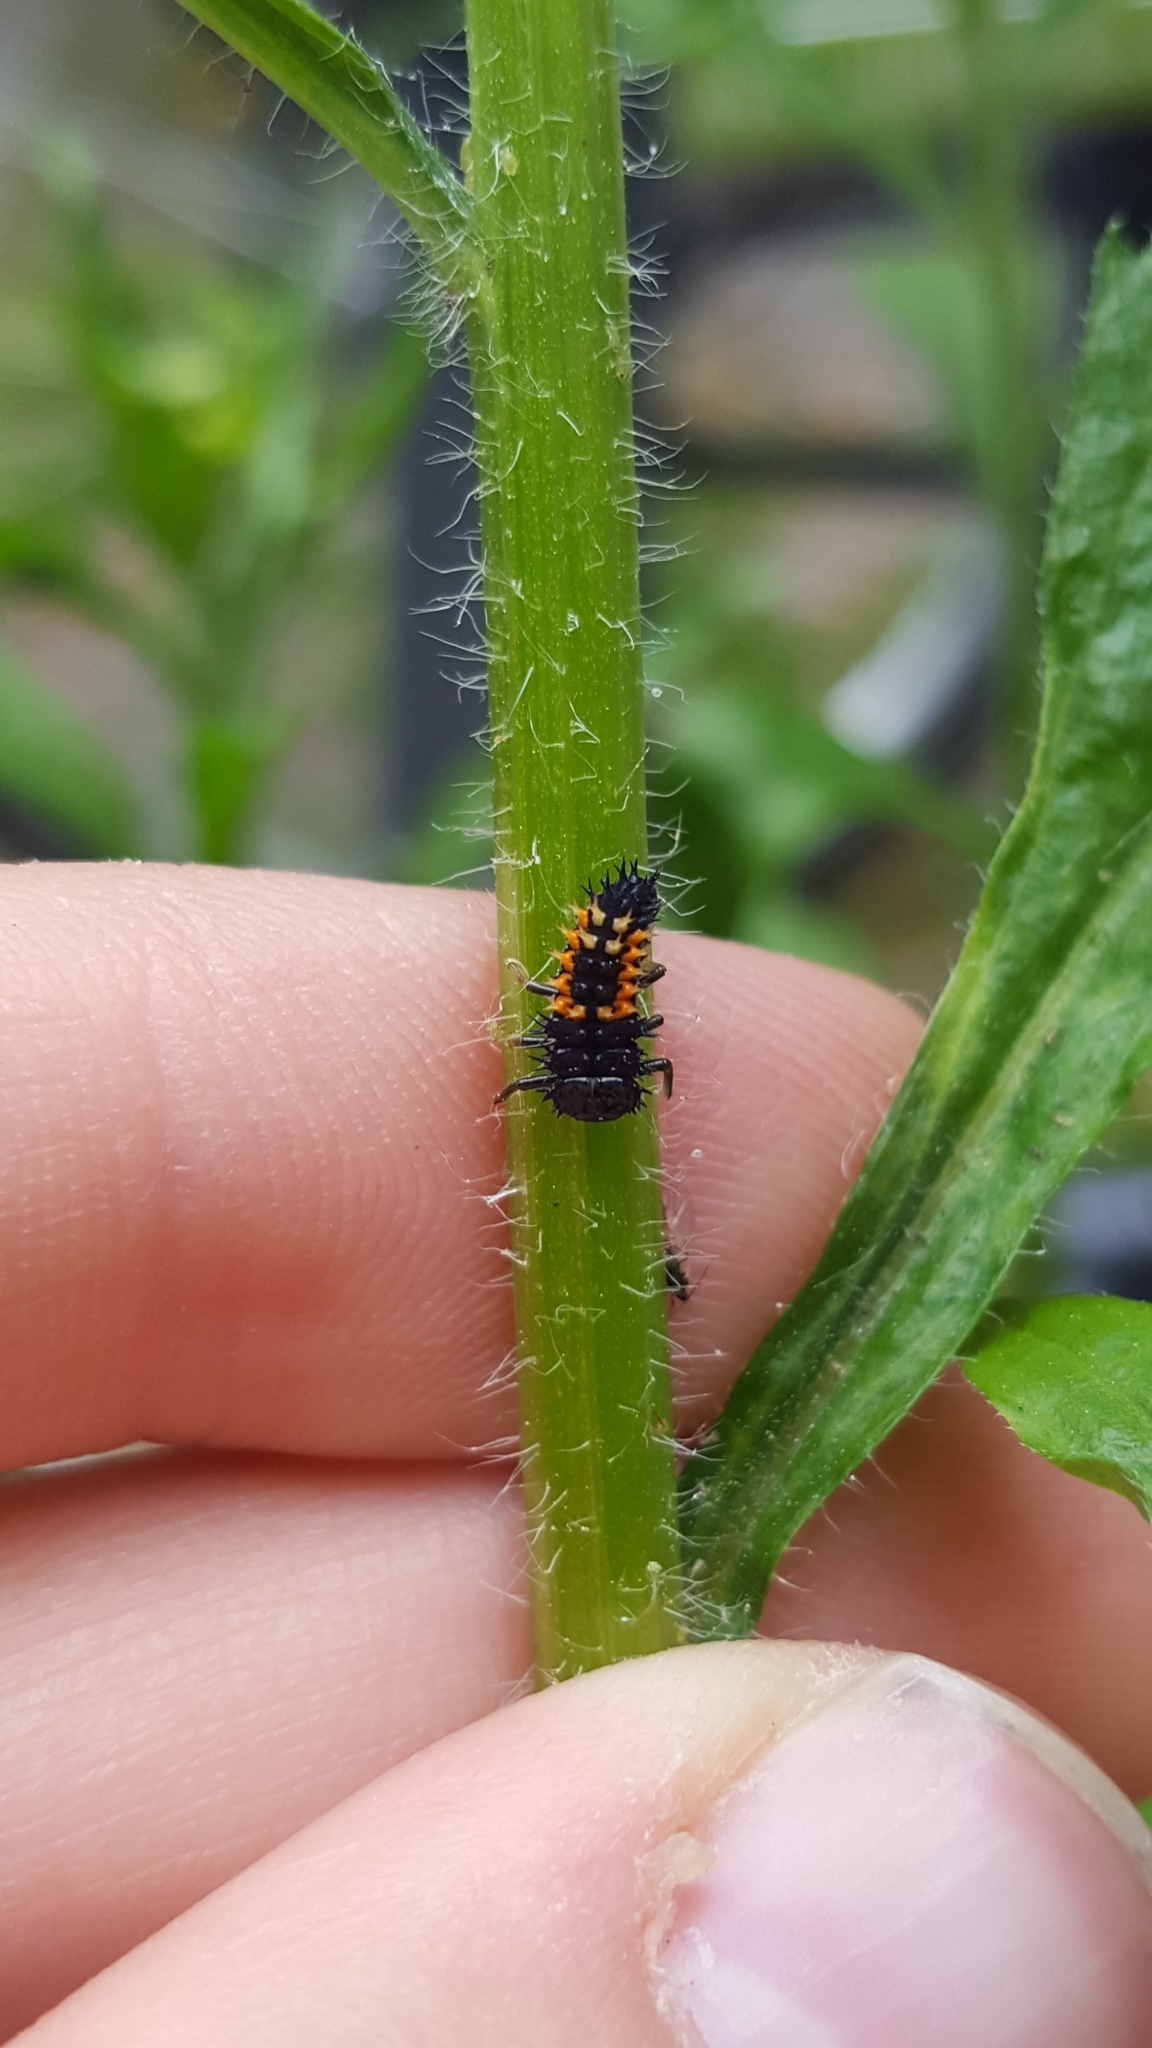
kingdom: Animalia
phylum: Arthropoda
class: Insecta
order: Coleoptera
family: Coccinellidae
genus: Harmonia
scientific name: Harmonia axyridis
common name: Harlequin ladybird
